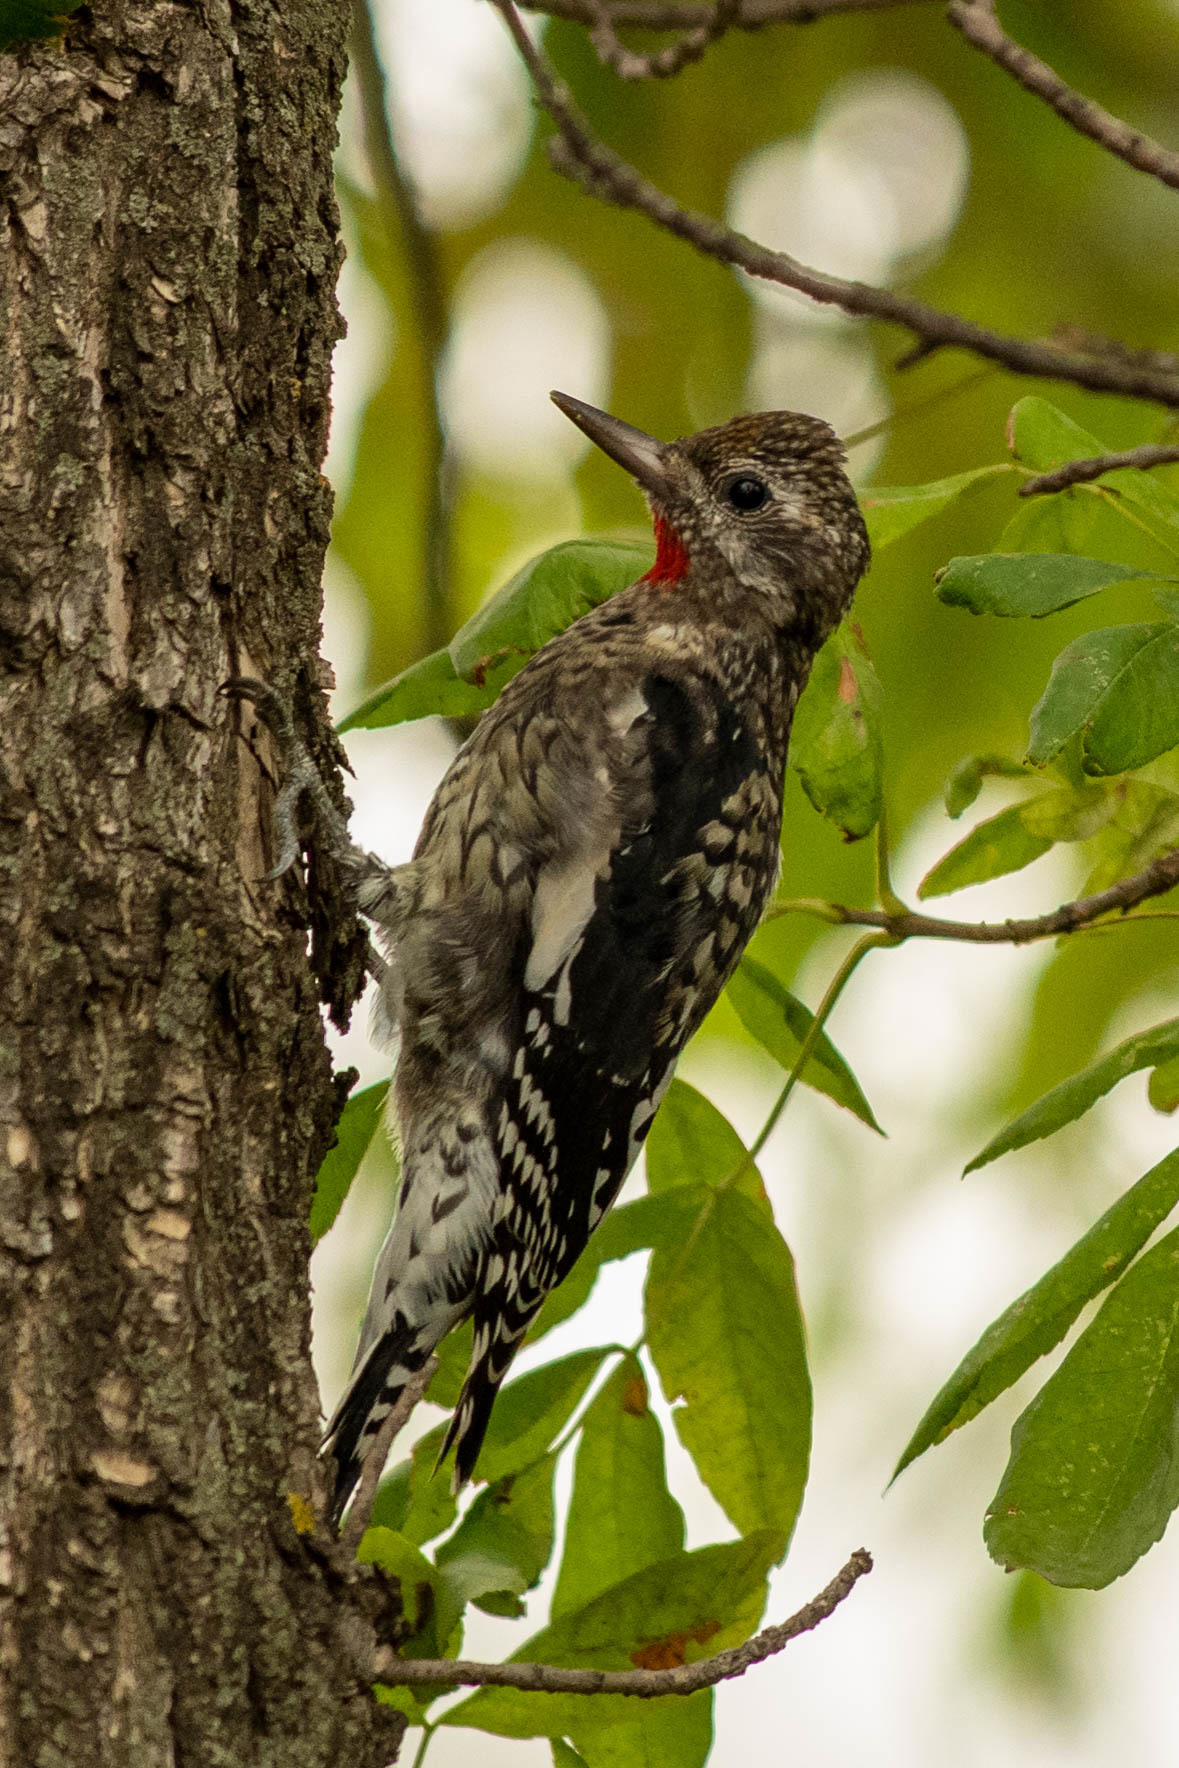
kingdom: Animalia
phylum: Chordata
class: Aves
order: Piciformes
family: Picidae
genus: Sphyrapicus
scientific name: Sphyrapicus varius
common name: Yellow-bellied sapsucker
